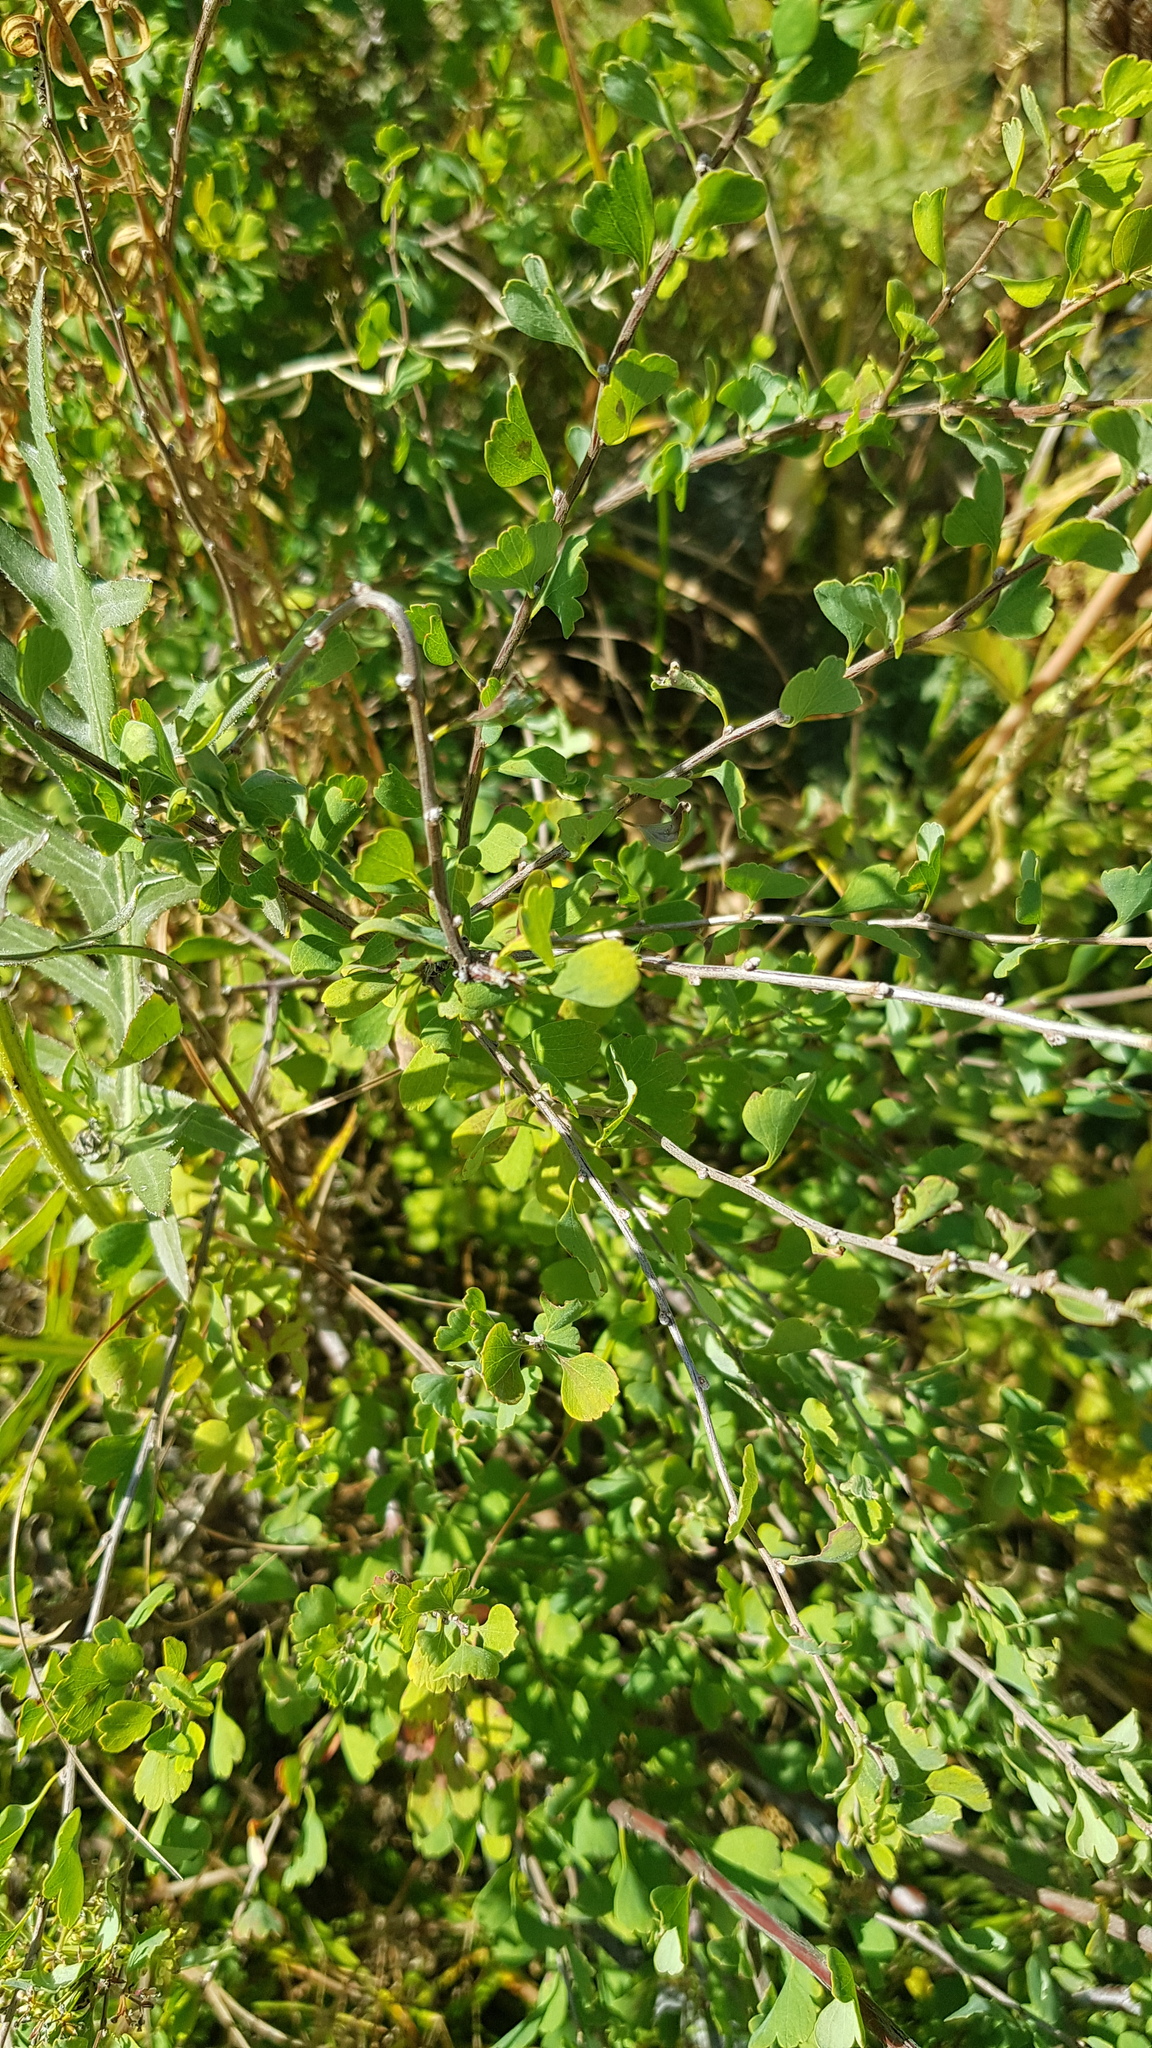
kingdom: Plantae
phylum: Tracheophyta
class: Magnoliopsida
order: Rosales
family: Rosaceae
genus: Spiraea
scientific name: Spiraea aquilegifolia
